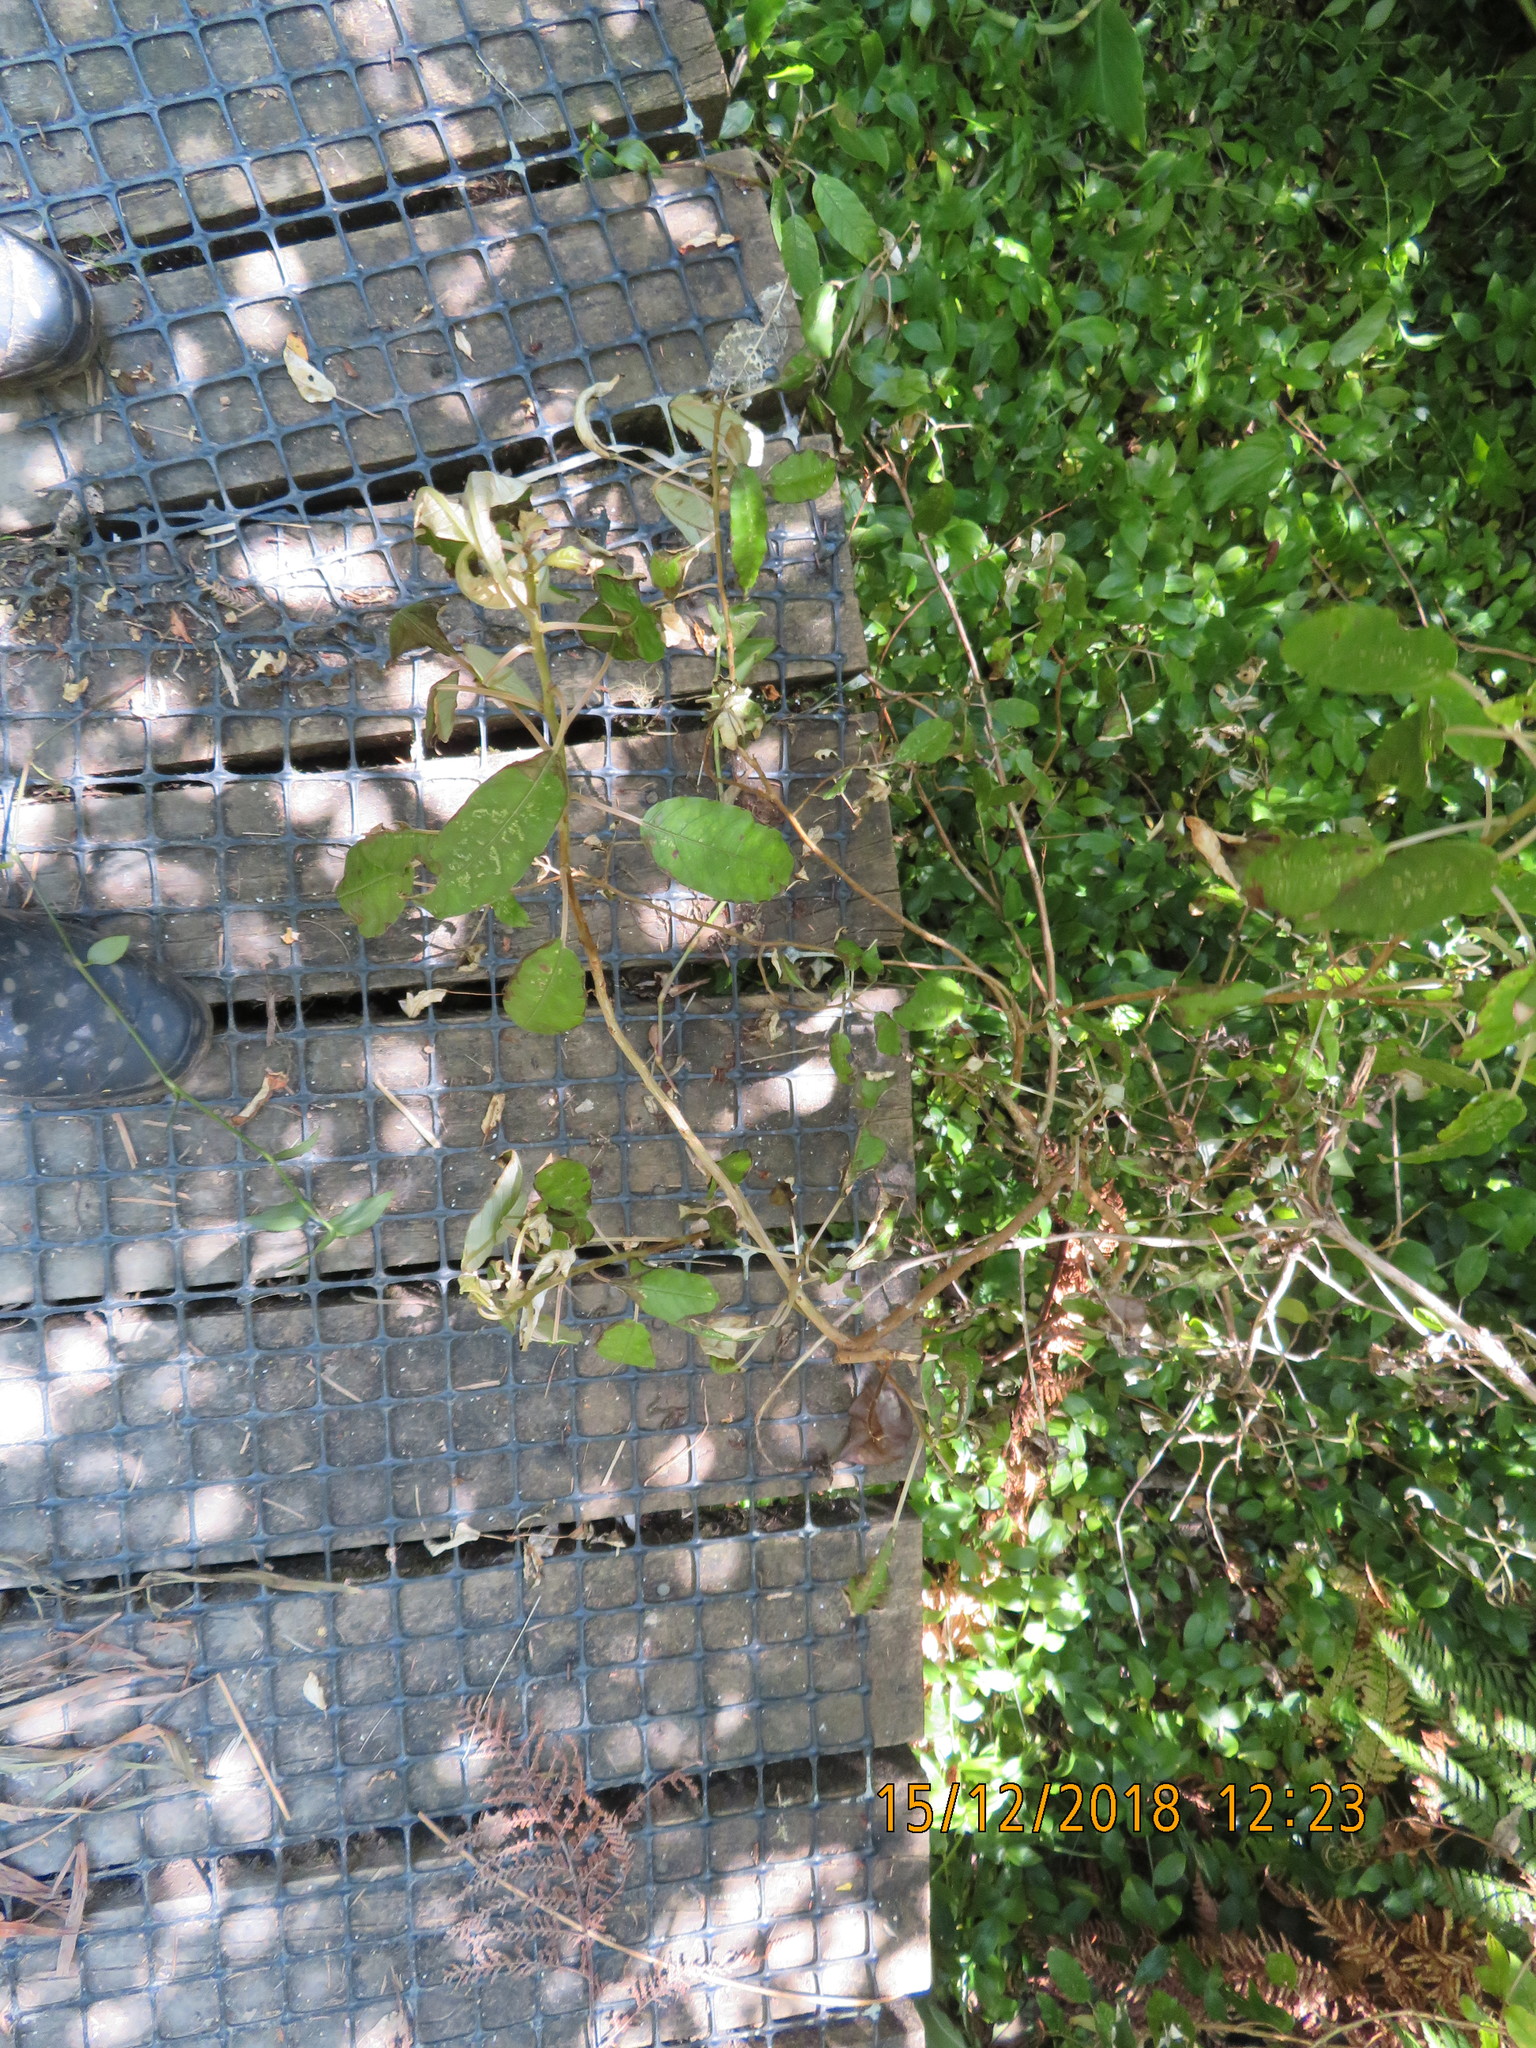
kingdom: Plantae
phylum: Tracheophyta
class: Magnoliopsida
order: Myrtales
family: Onagraceae
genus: Fuchsia
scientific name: Fuchsia excorticata
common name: Tree fuchsia
